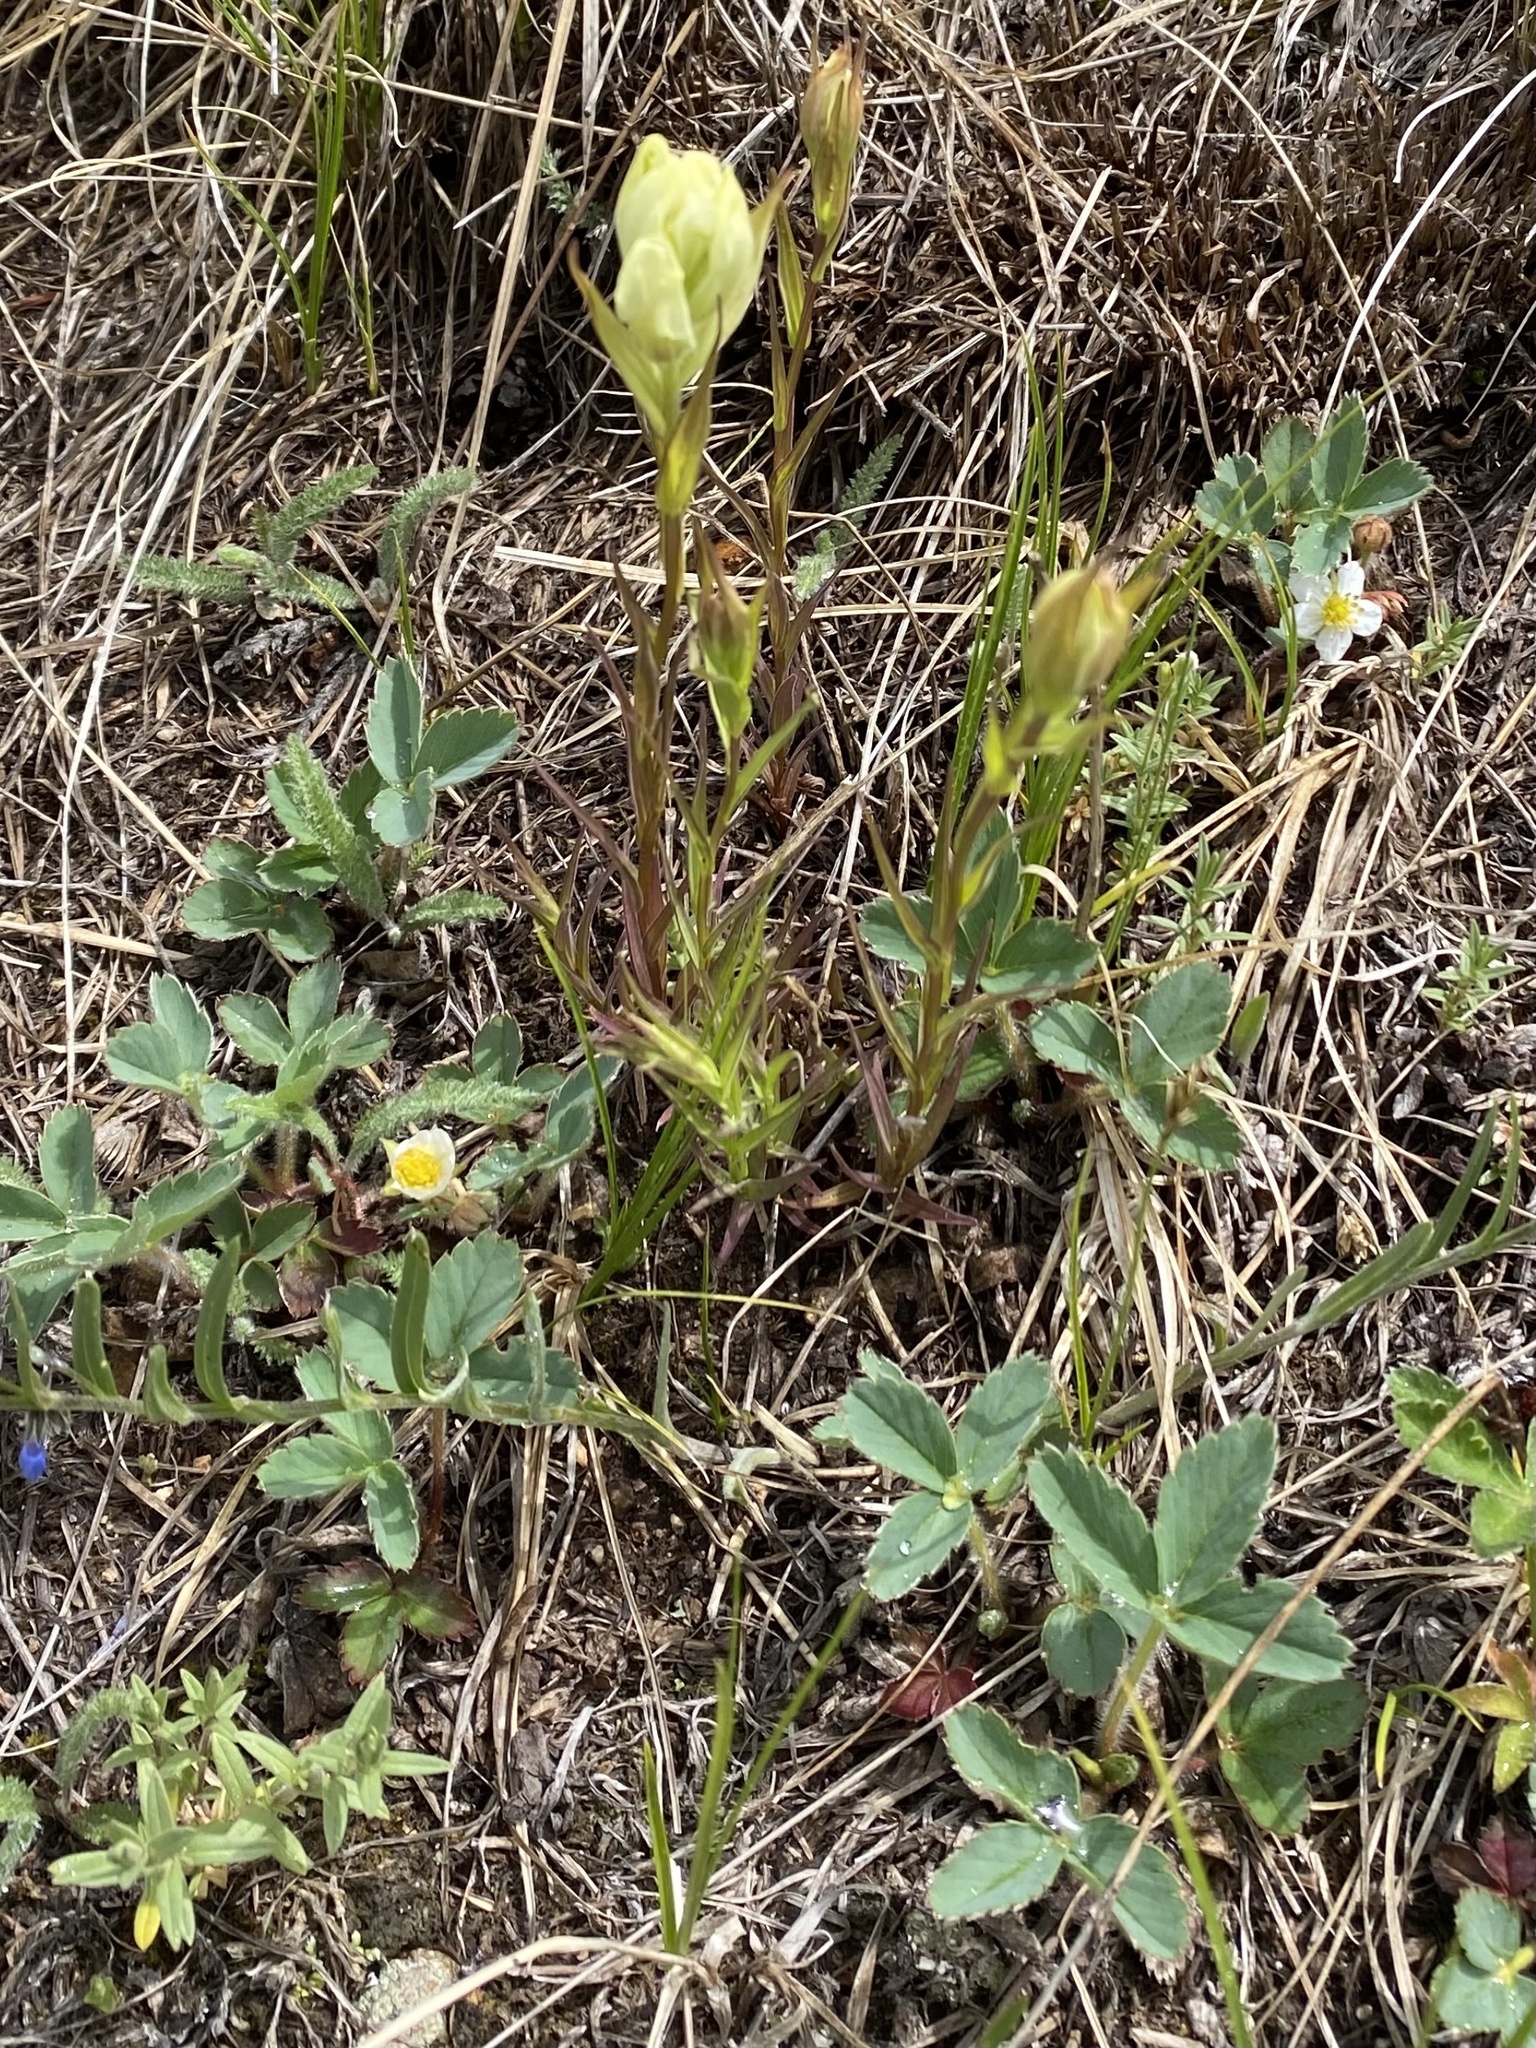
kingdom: Plantae
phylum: Tracheophyta
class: Magnoliopsida
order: Rosales
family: Rosaceae
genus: Fragaria
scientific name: Fragaria virginiana
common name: Thickleaved wild strawberry
